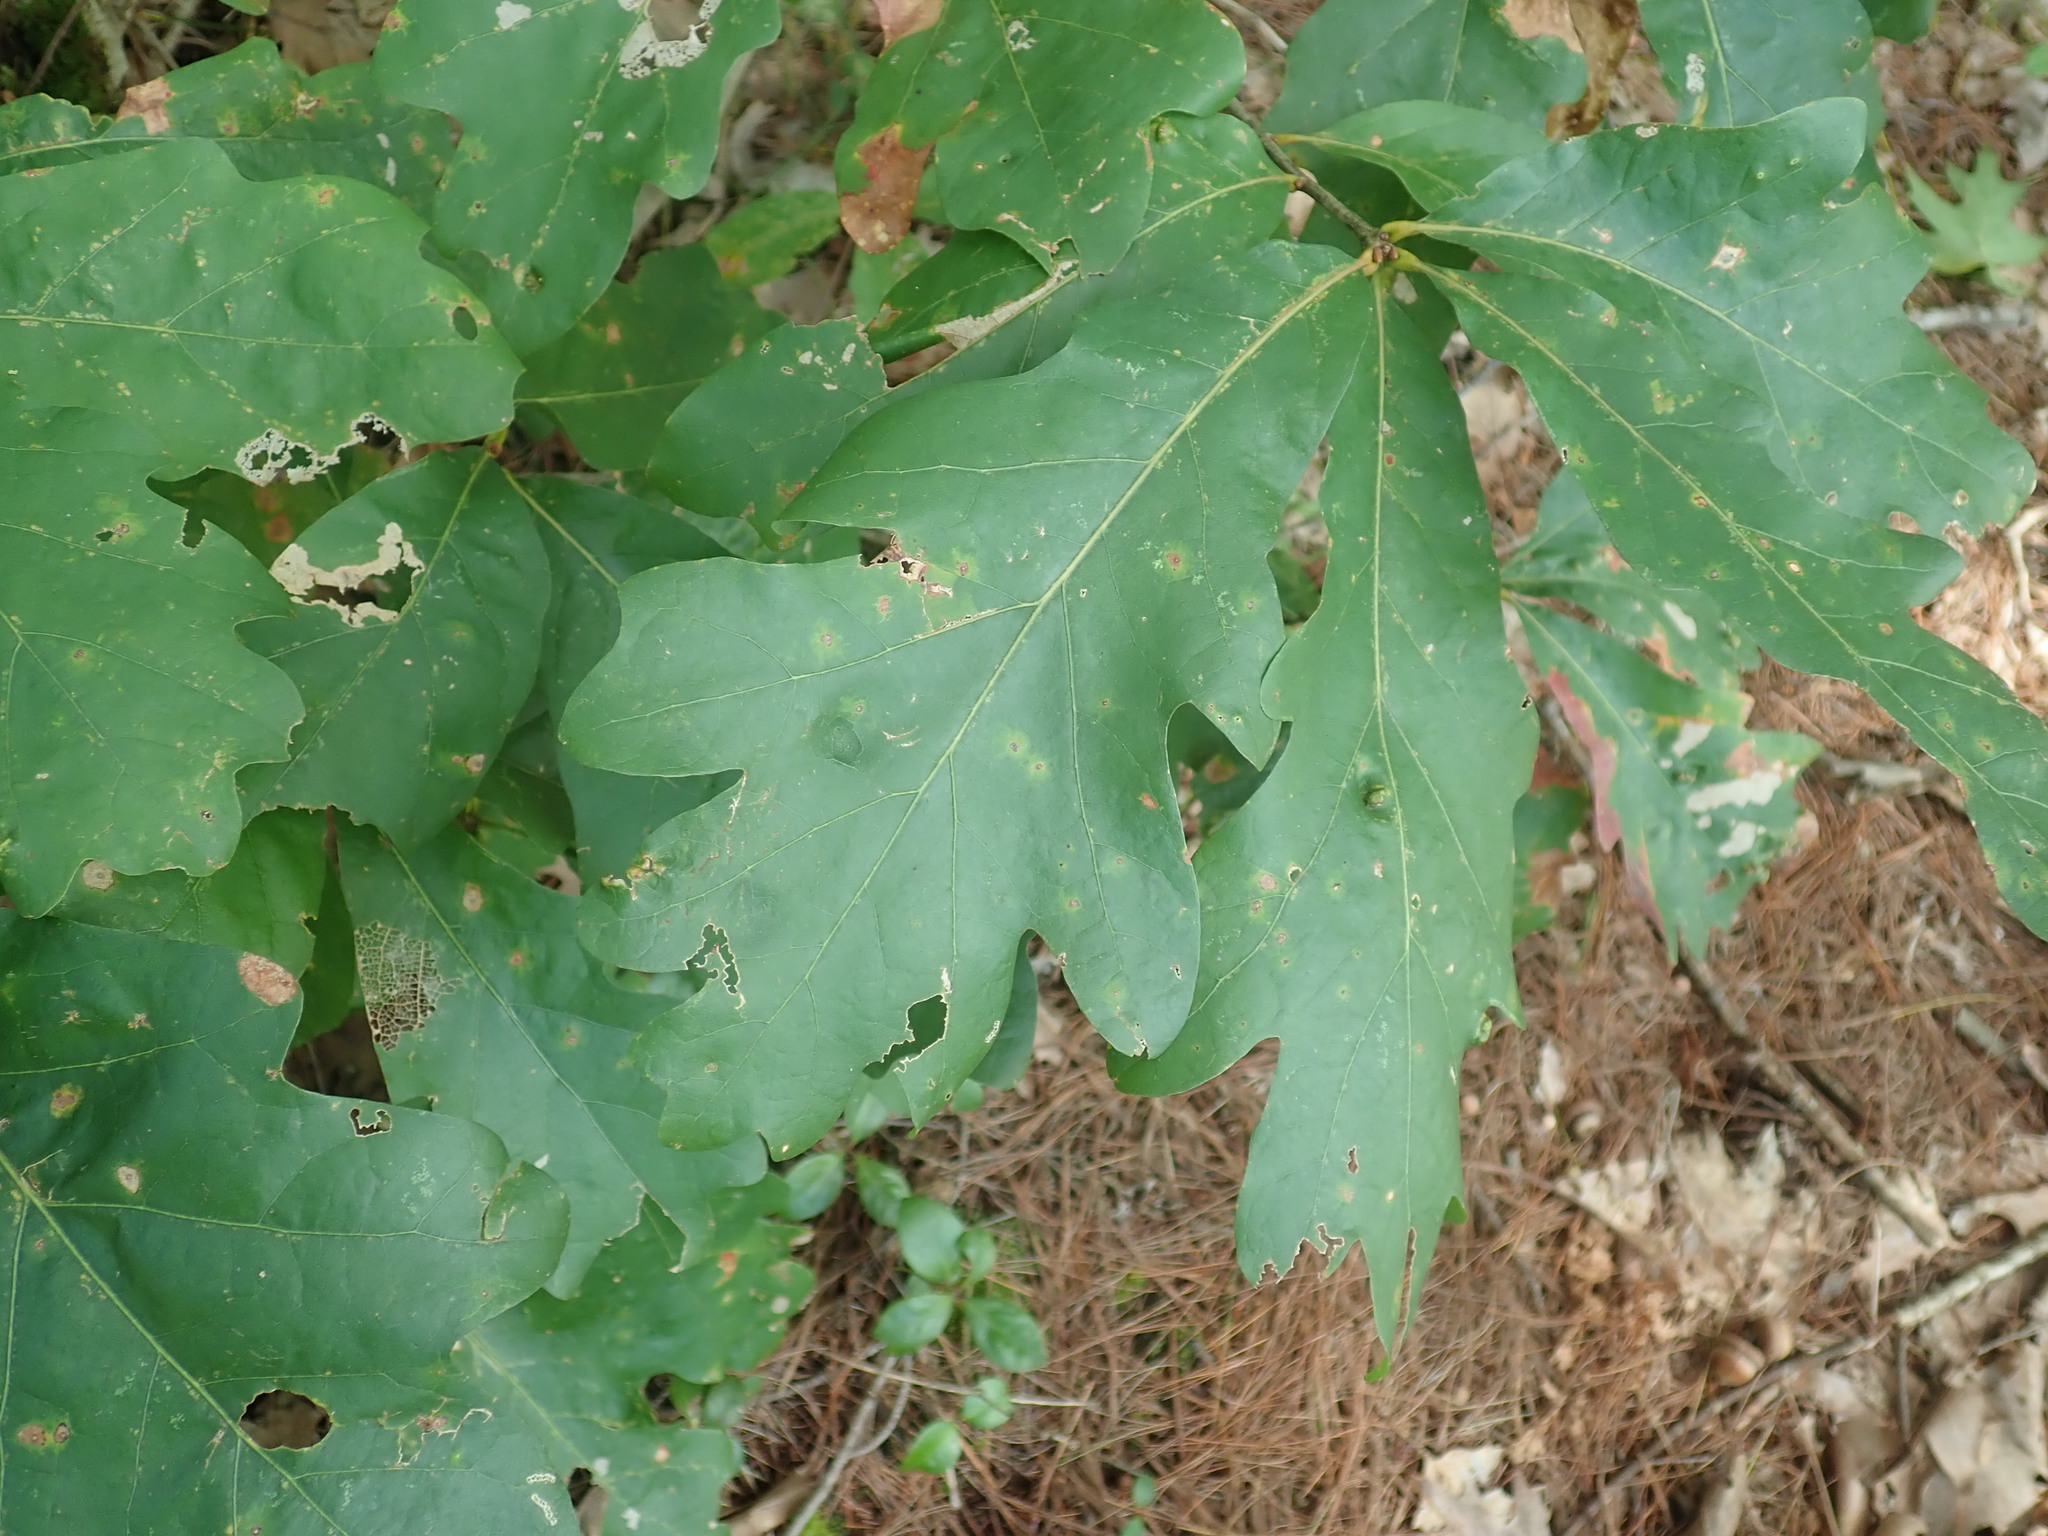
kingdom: Plantae
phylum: Tracheophyta
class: Magnoliopsida
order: Fagales
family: Fagaceae
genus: Quercus
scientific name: Quercus alba
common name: White oak
